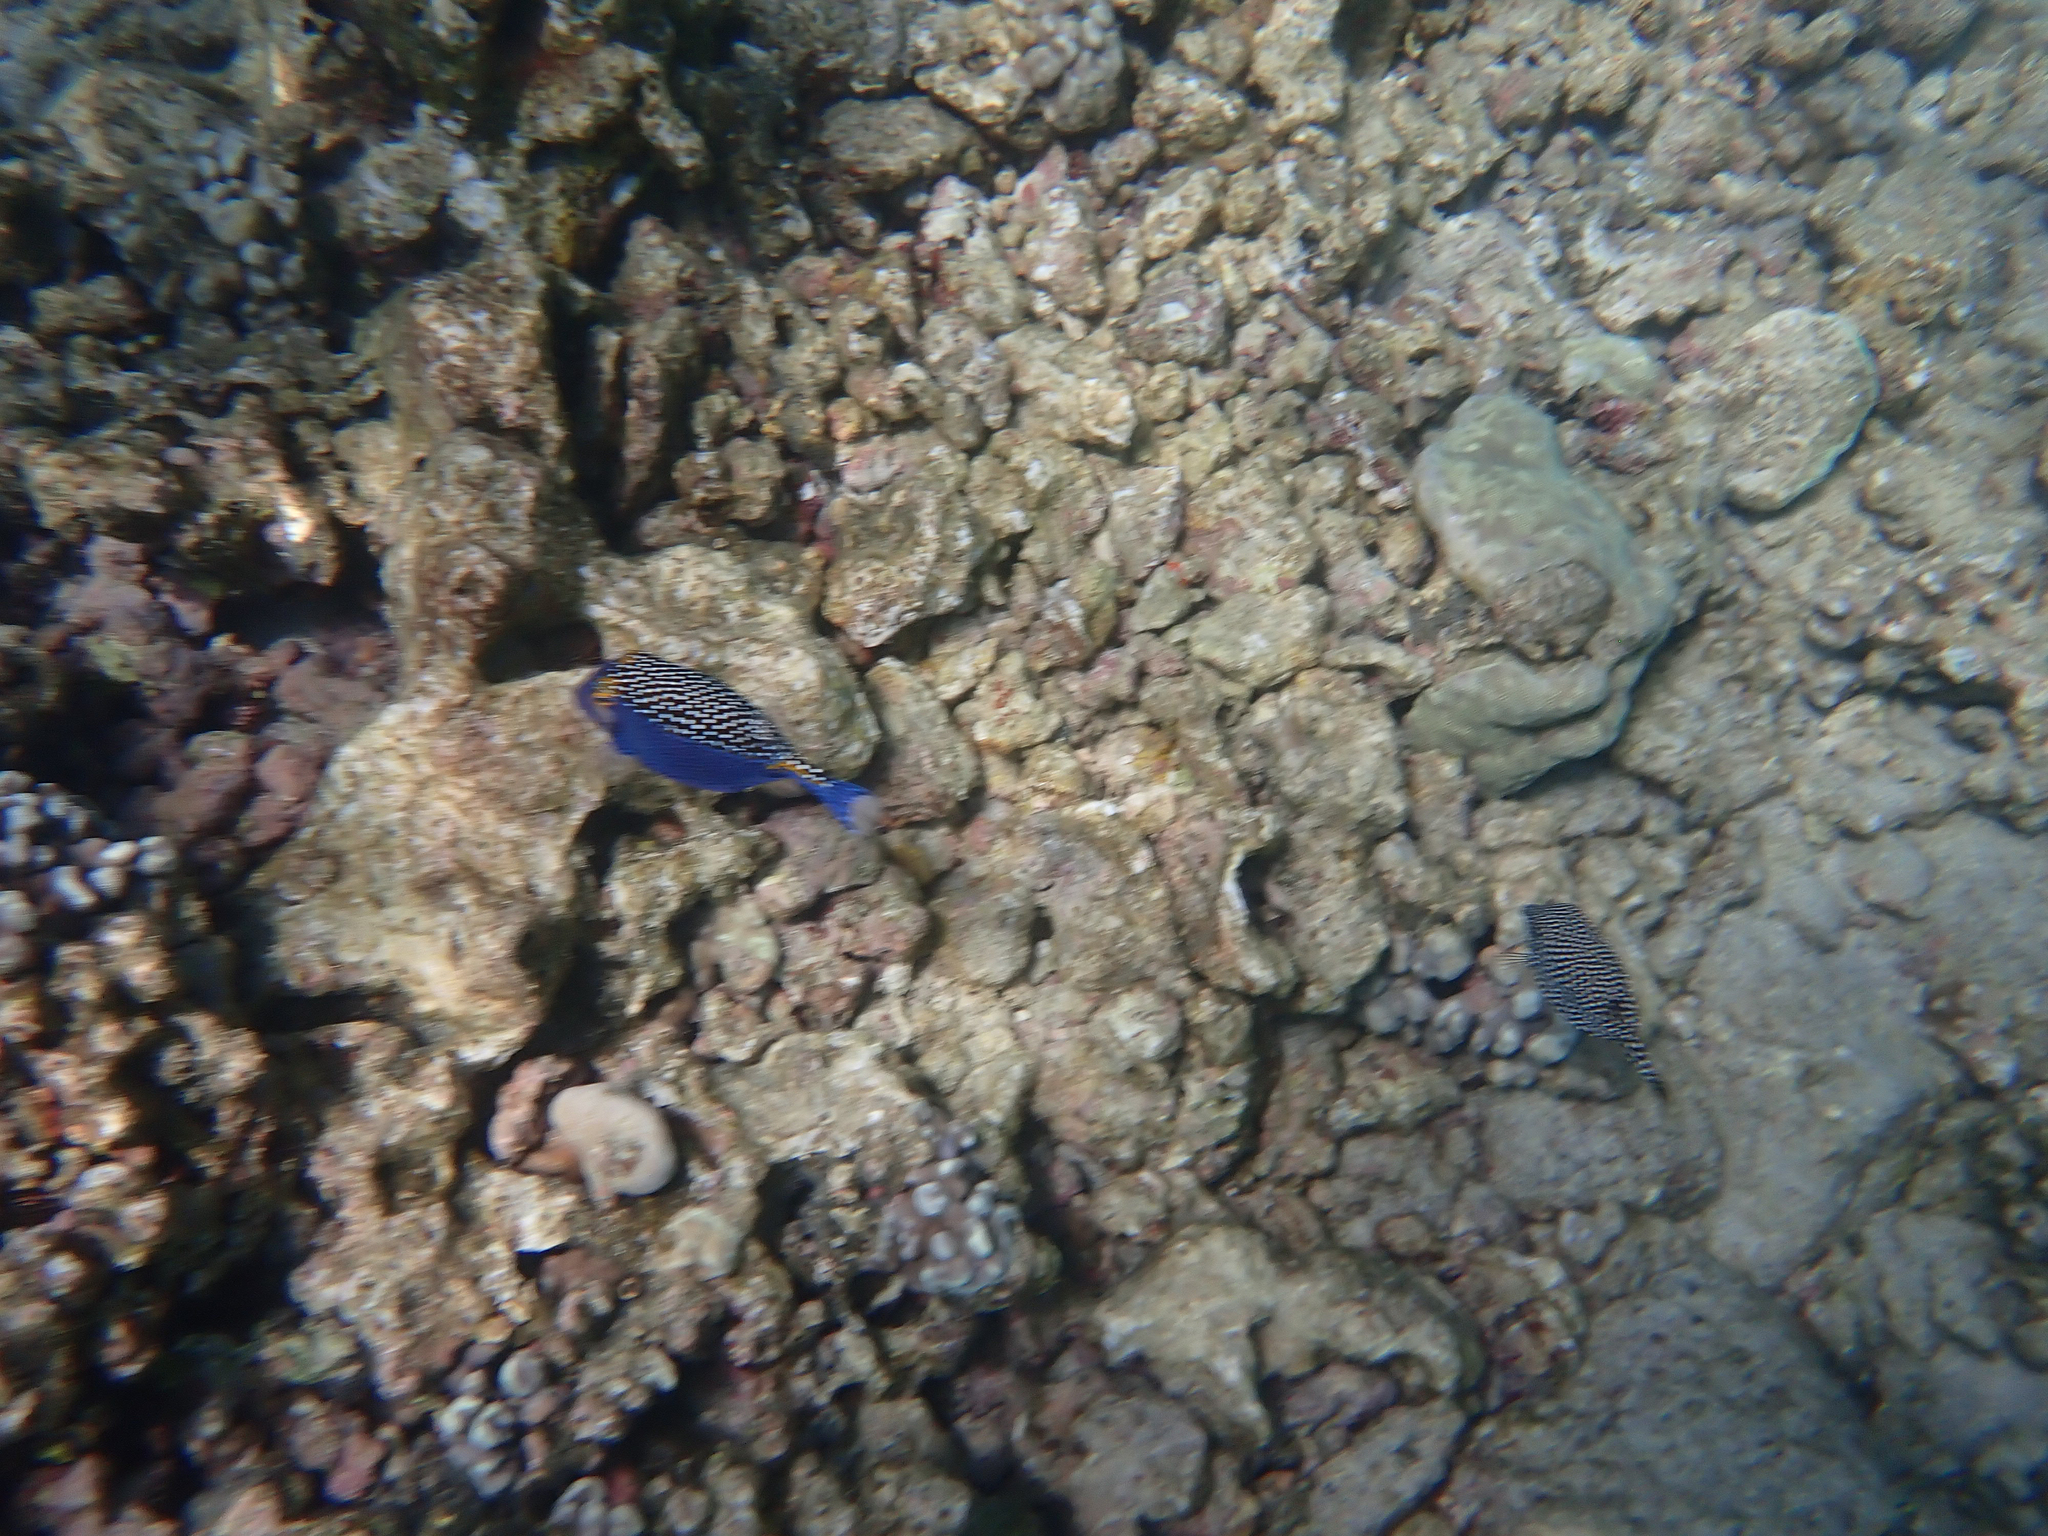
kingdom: Animalia
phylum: Chordata
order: Tetraodontiformes
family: Ostraciidae
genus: Ostracion
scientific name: Ostracion meleagris
